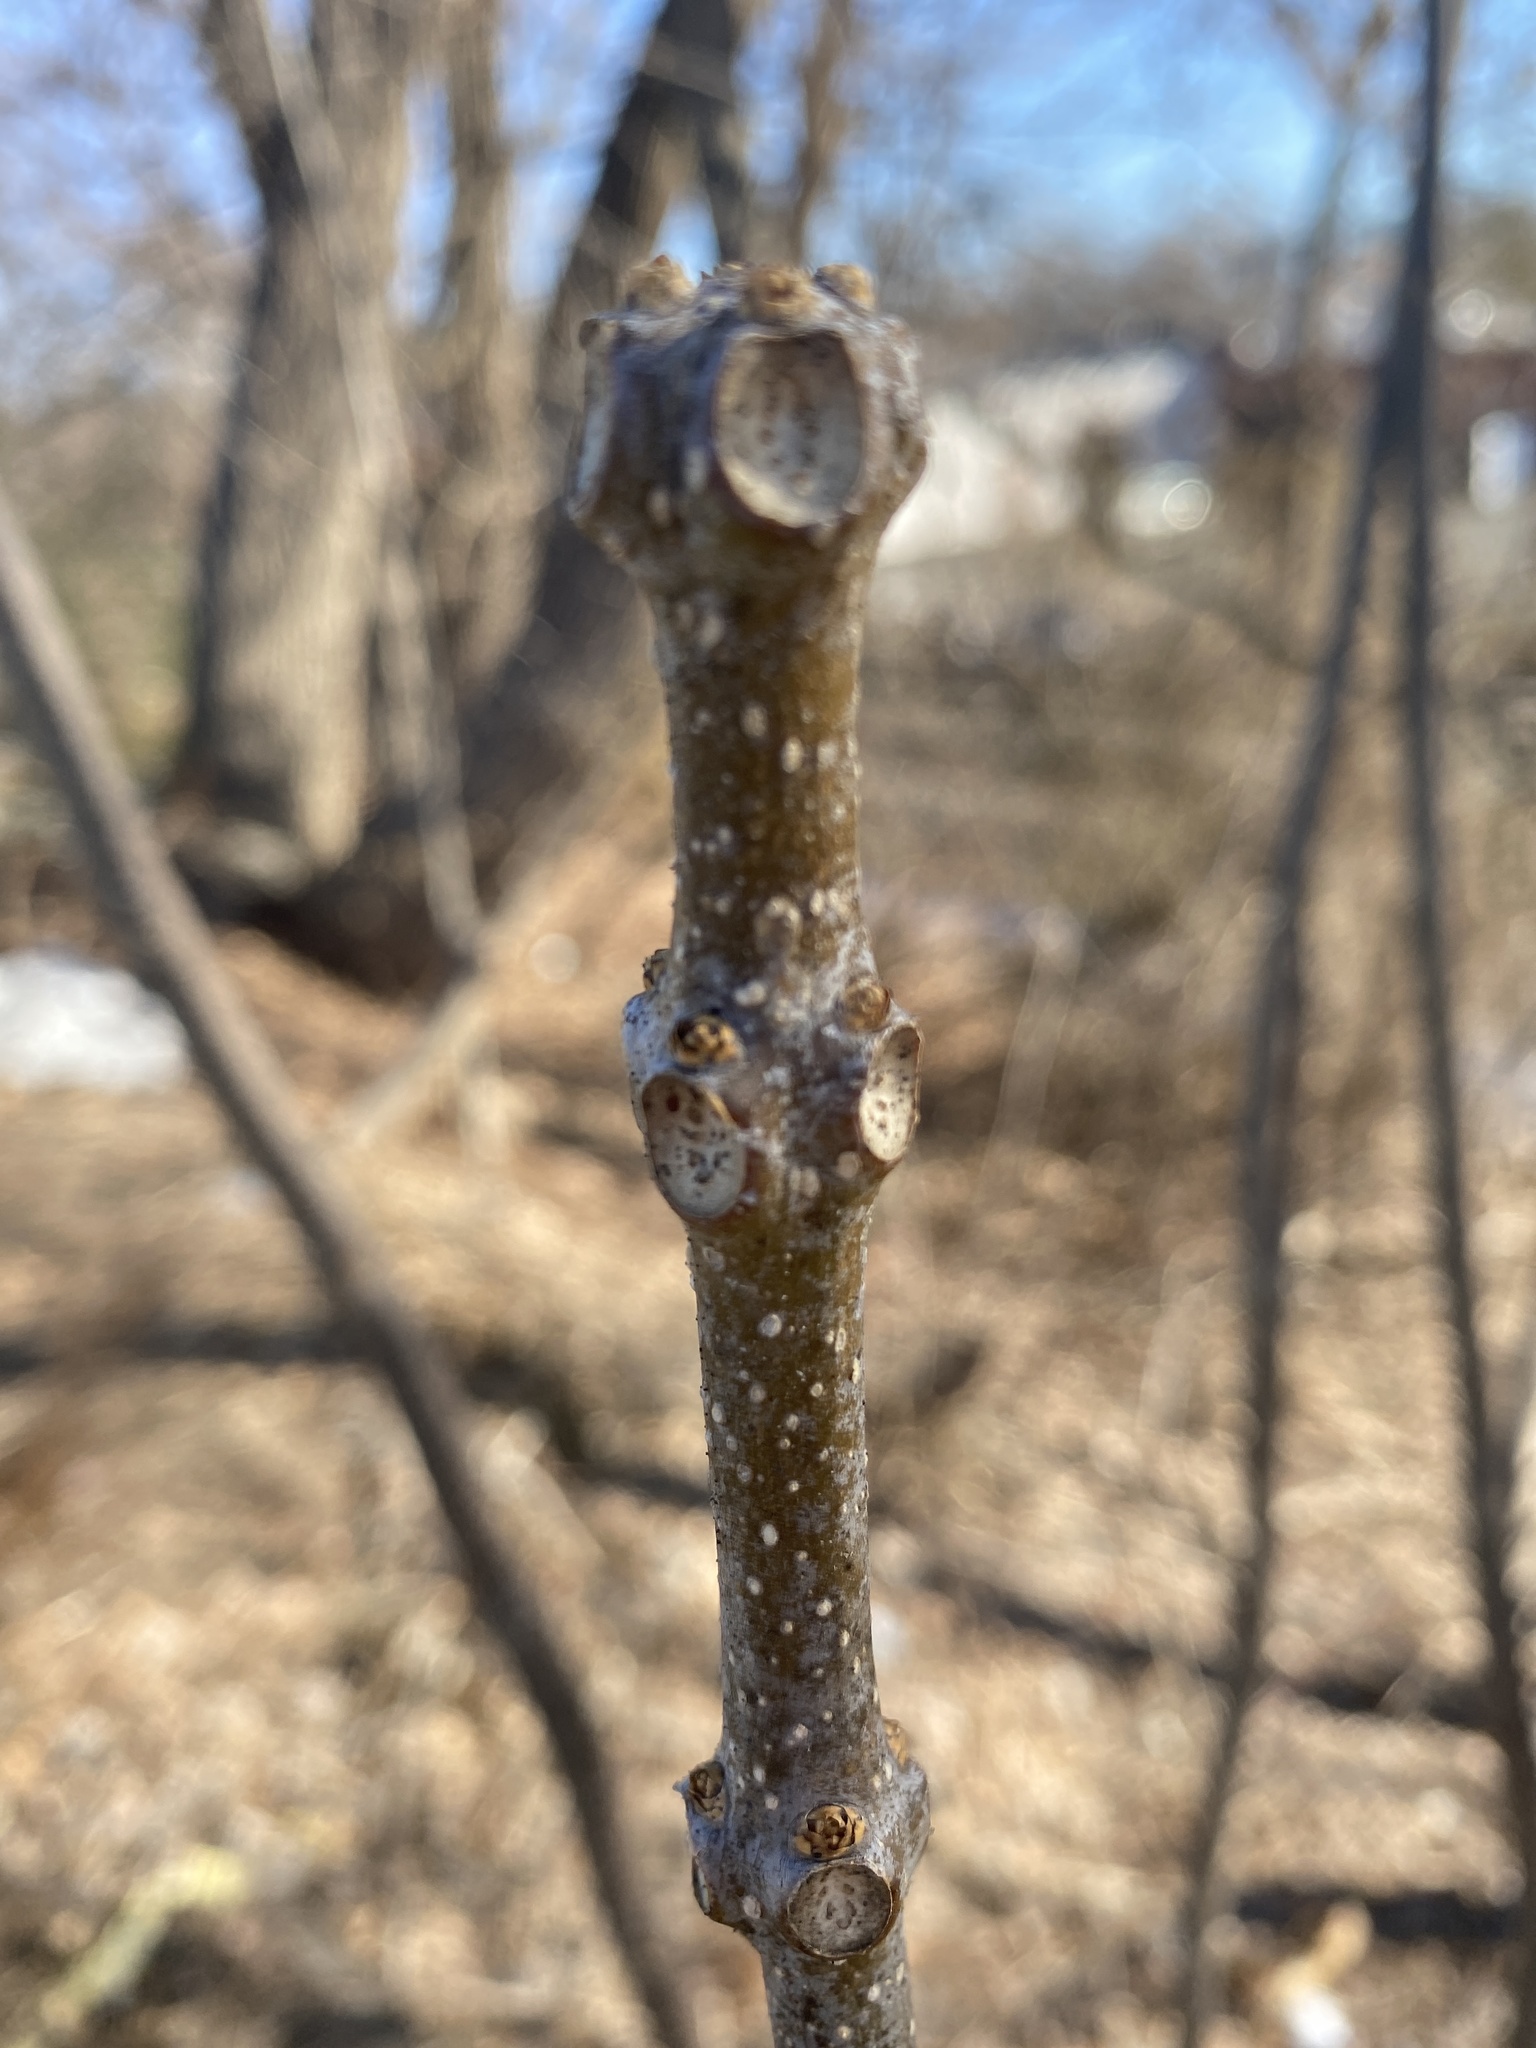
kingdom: Plantae
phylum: Tracheophyta
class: Magnoliopsida
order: Lamiales
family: Bignoniaceae
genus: Catalpa
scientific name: Catalpa
